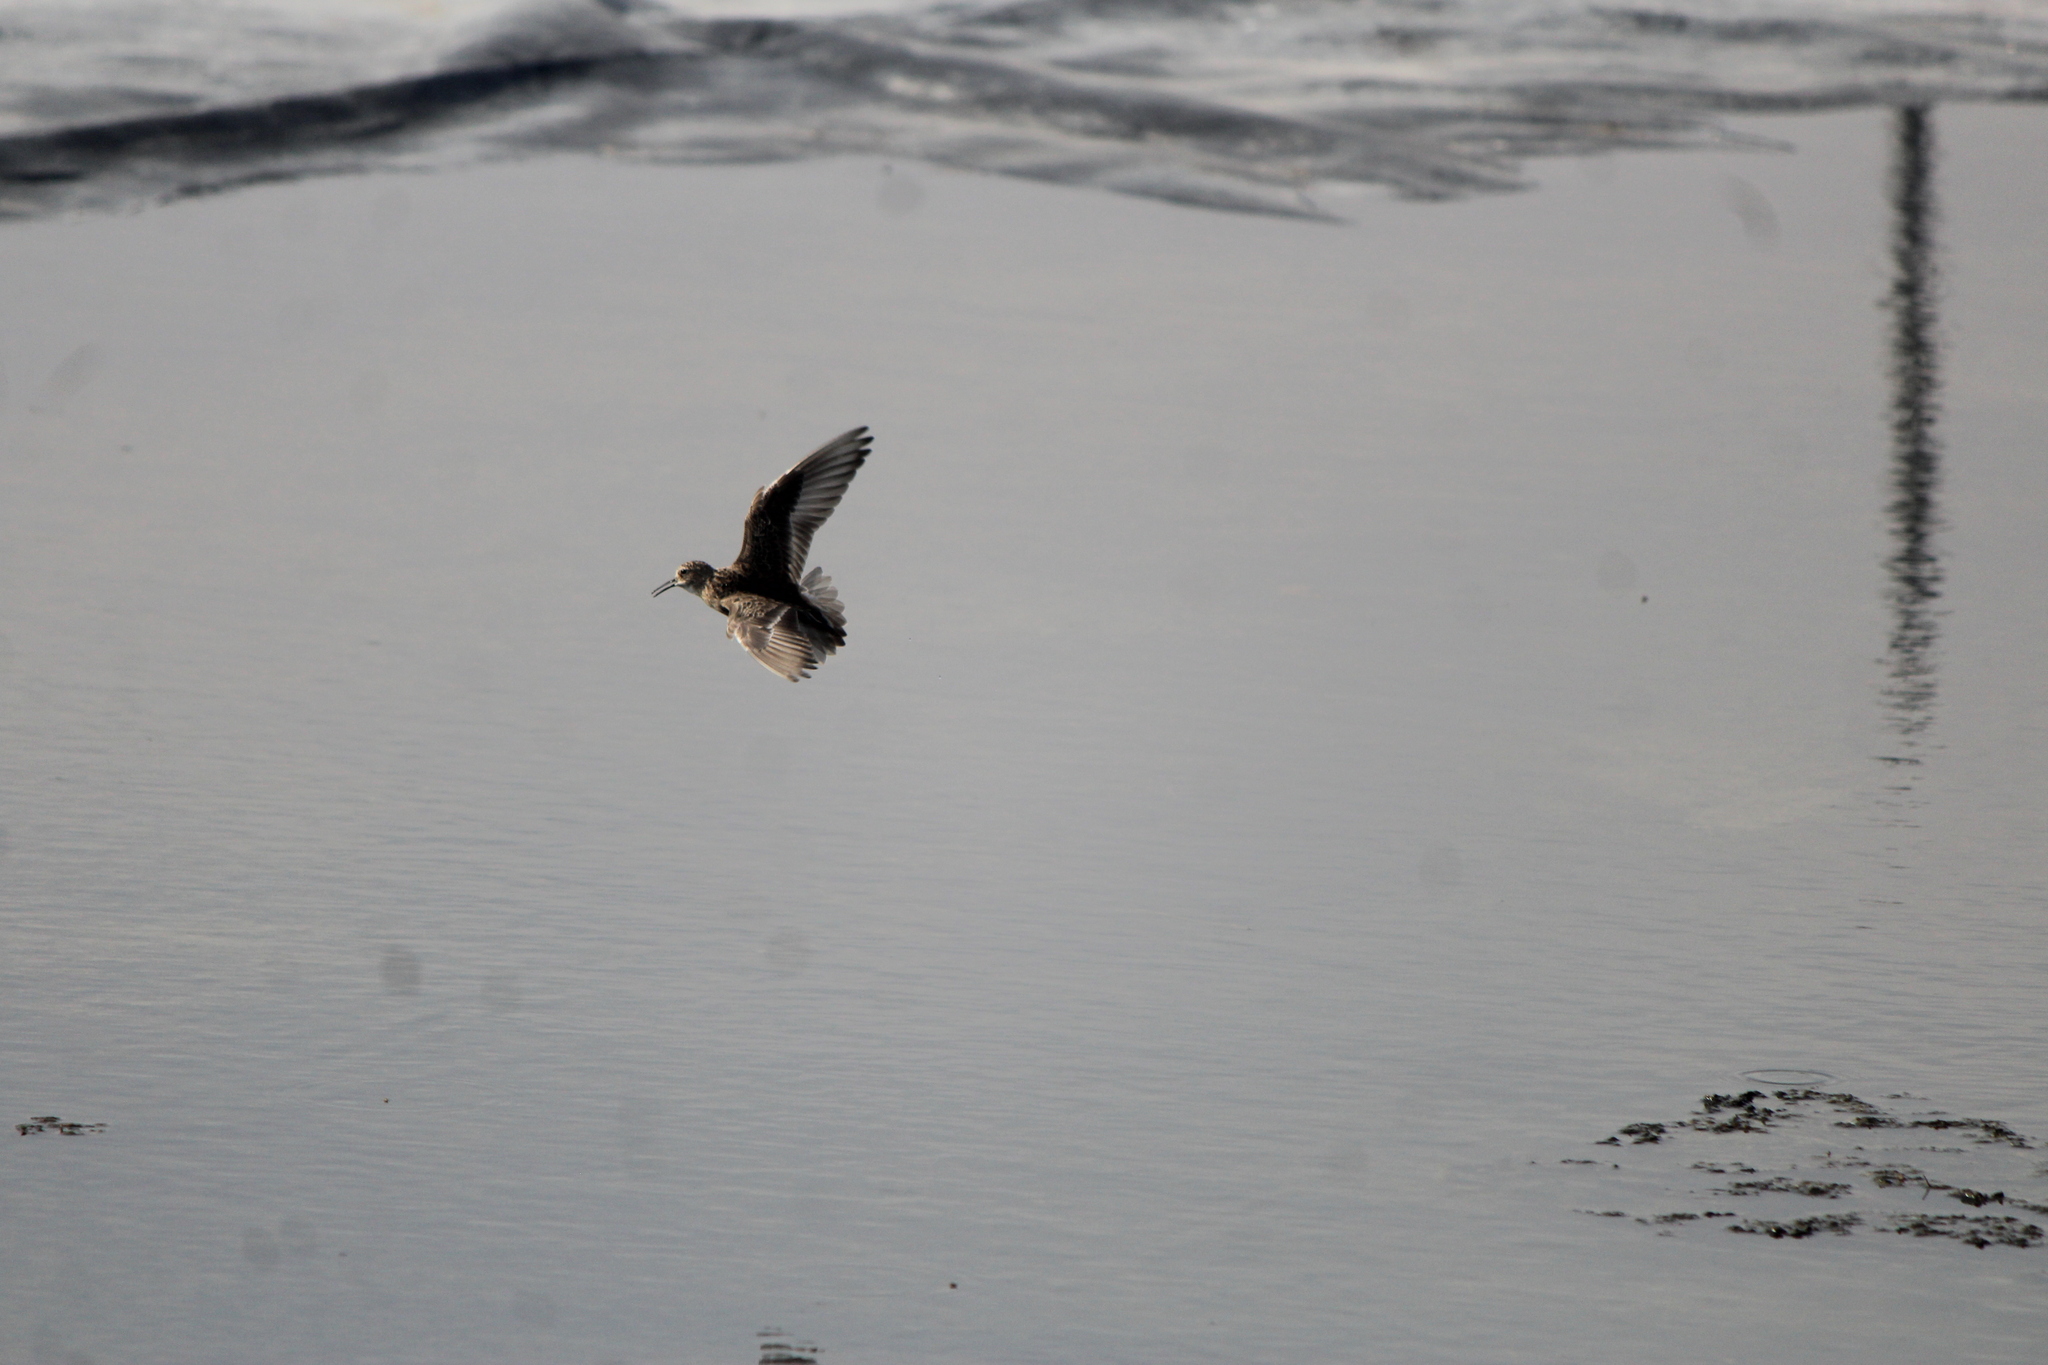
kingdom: Animalia
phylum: Chordata
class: Aves
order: Charadriiformes
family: Scolopacidae
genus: Calidris
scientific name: Calidris bairdii
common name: Baird's sandpiper
